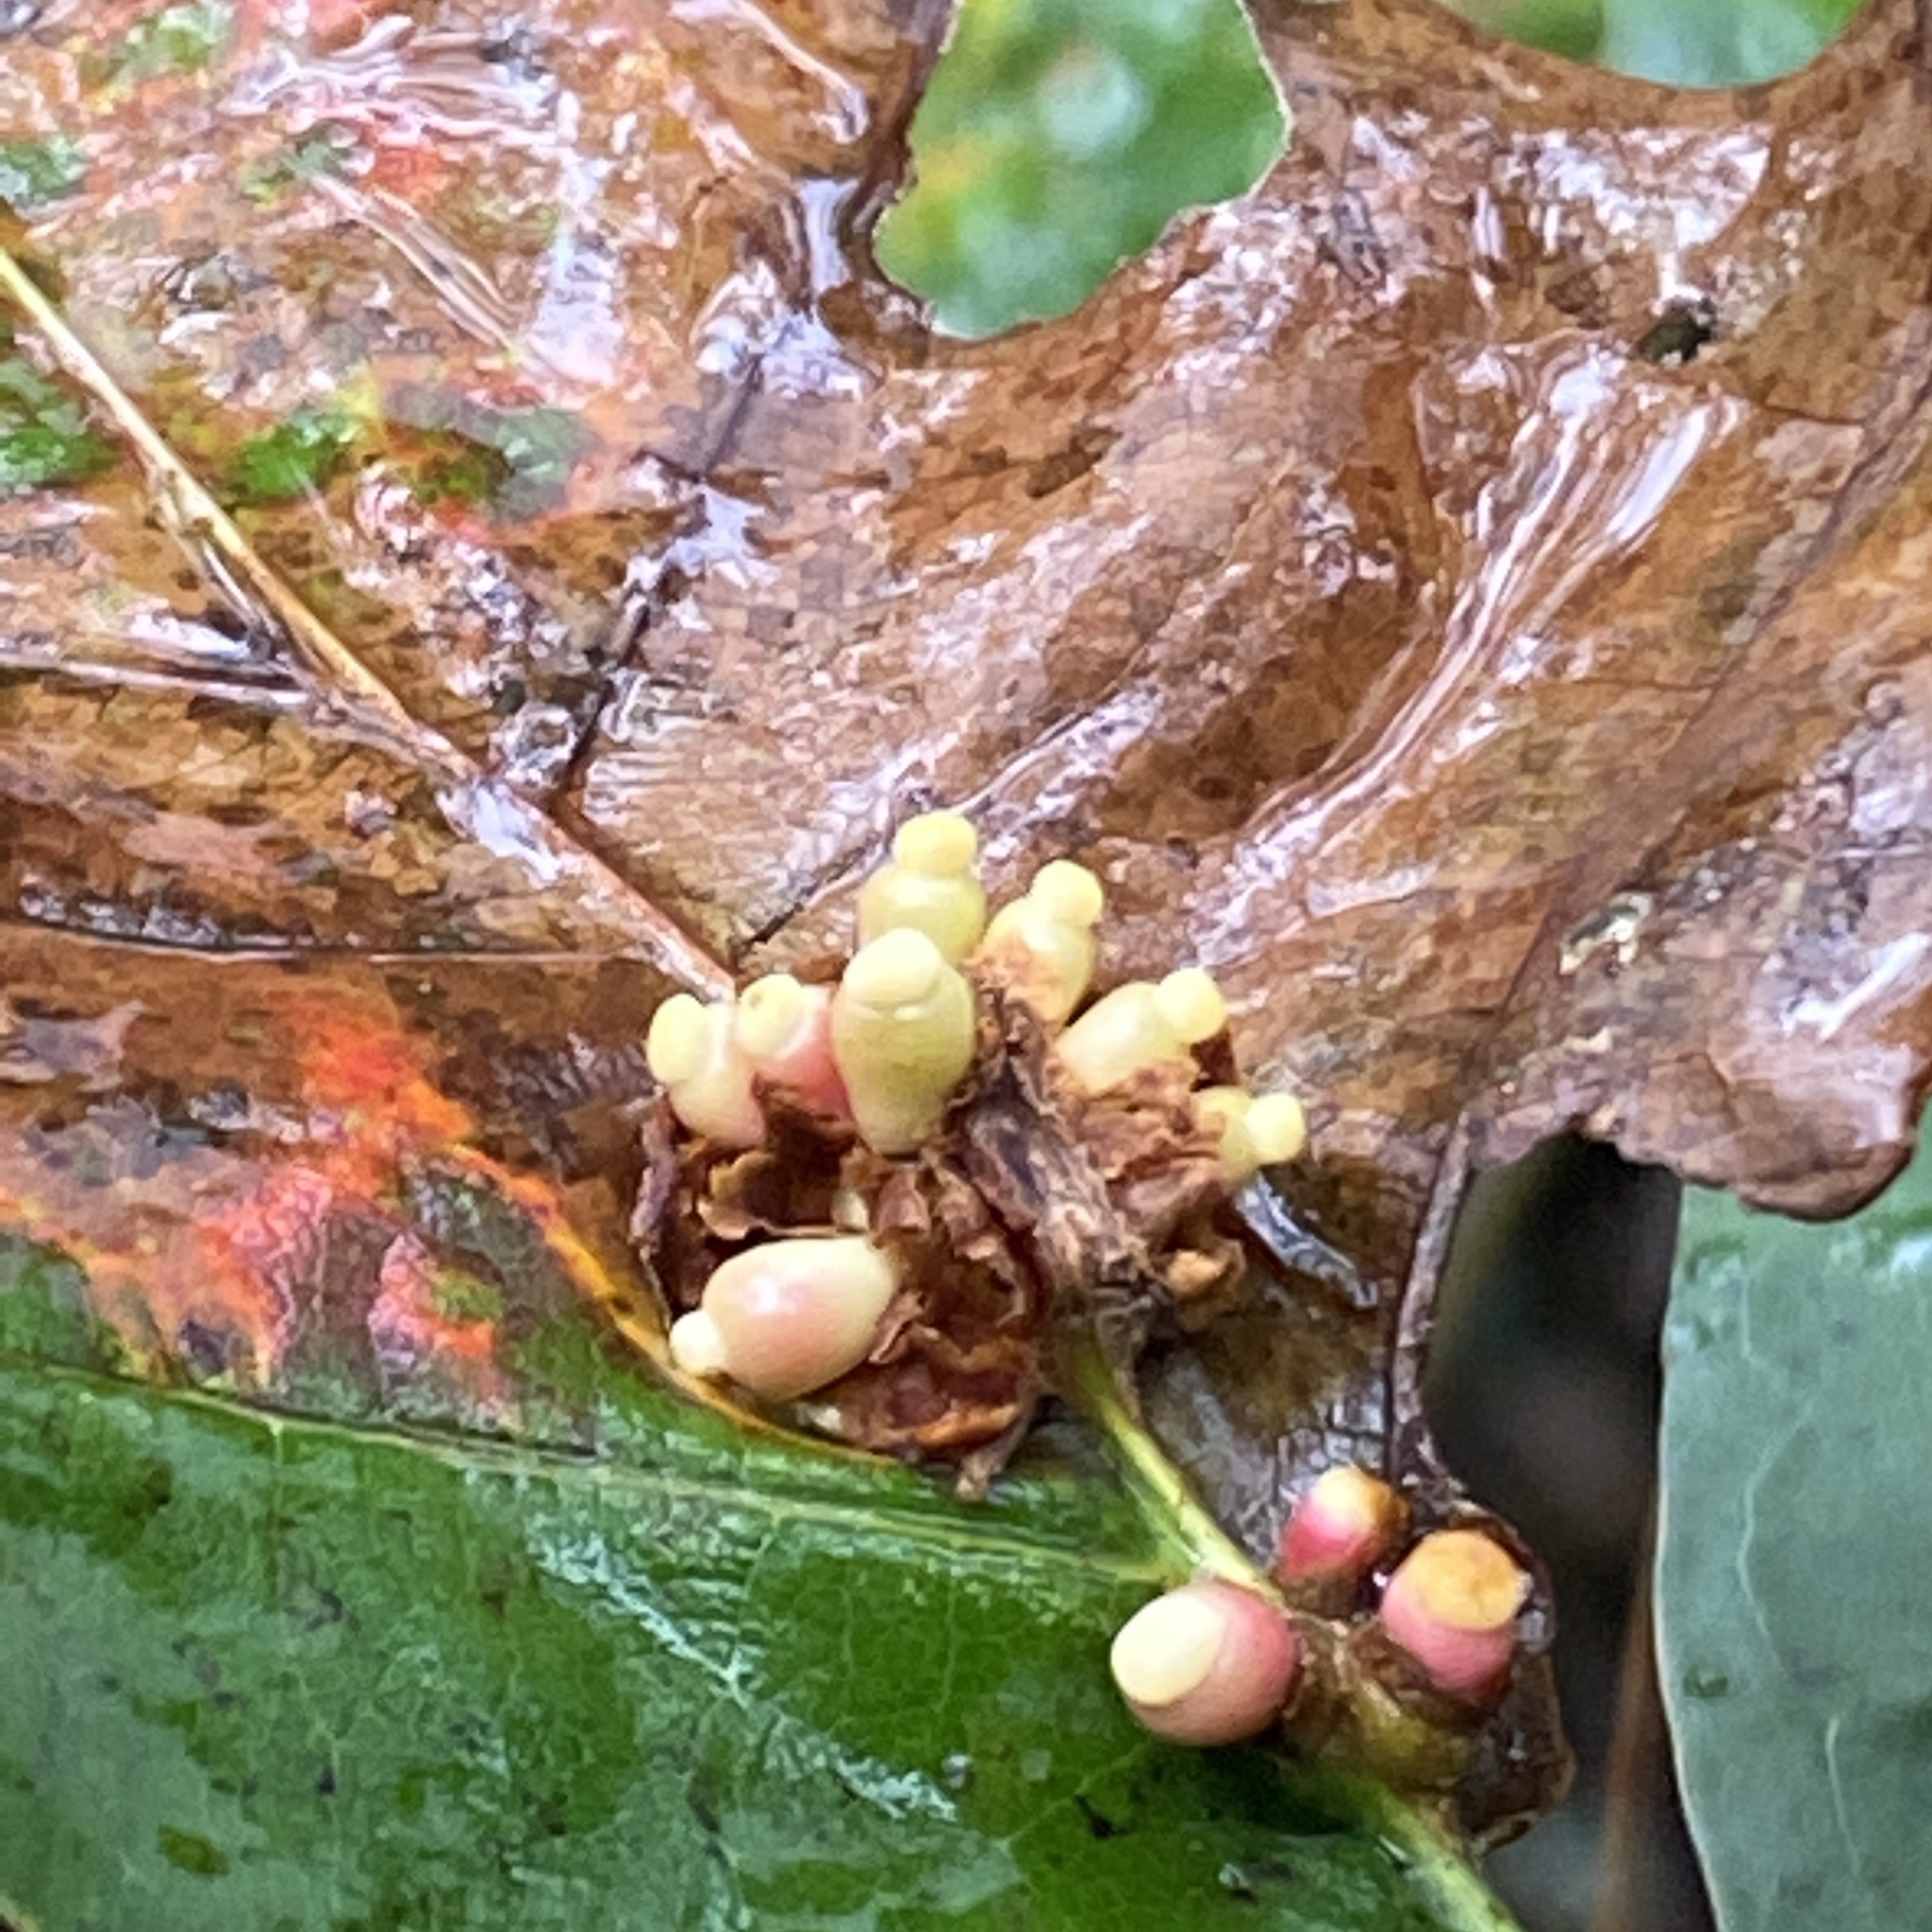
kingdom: Animalia
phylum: Arthropoda
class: Insecta
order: Hymenoptera
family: Cynipidae
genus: Kokkocynips
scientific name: Kokkocynips decidua
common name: Oak wheat gall
